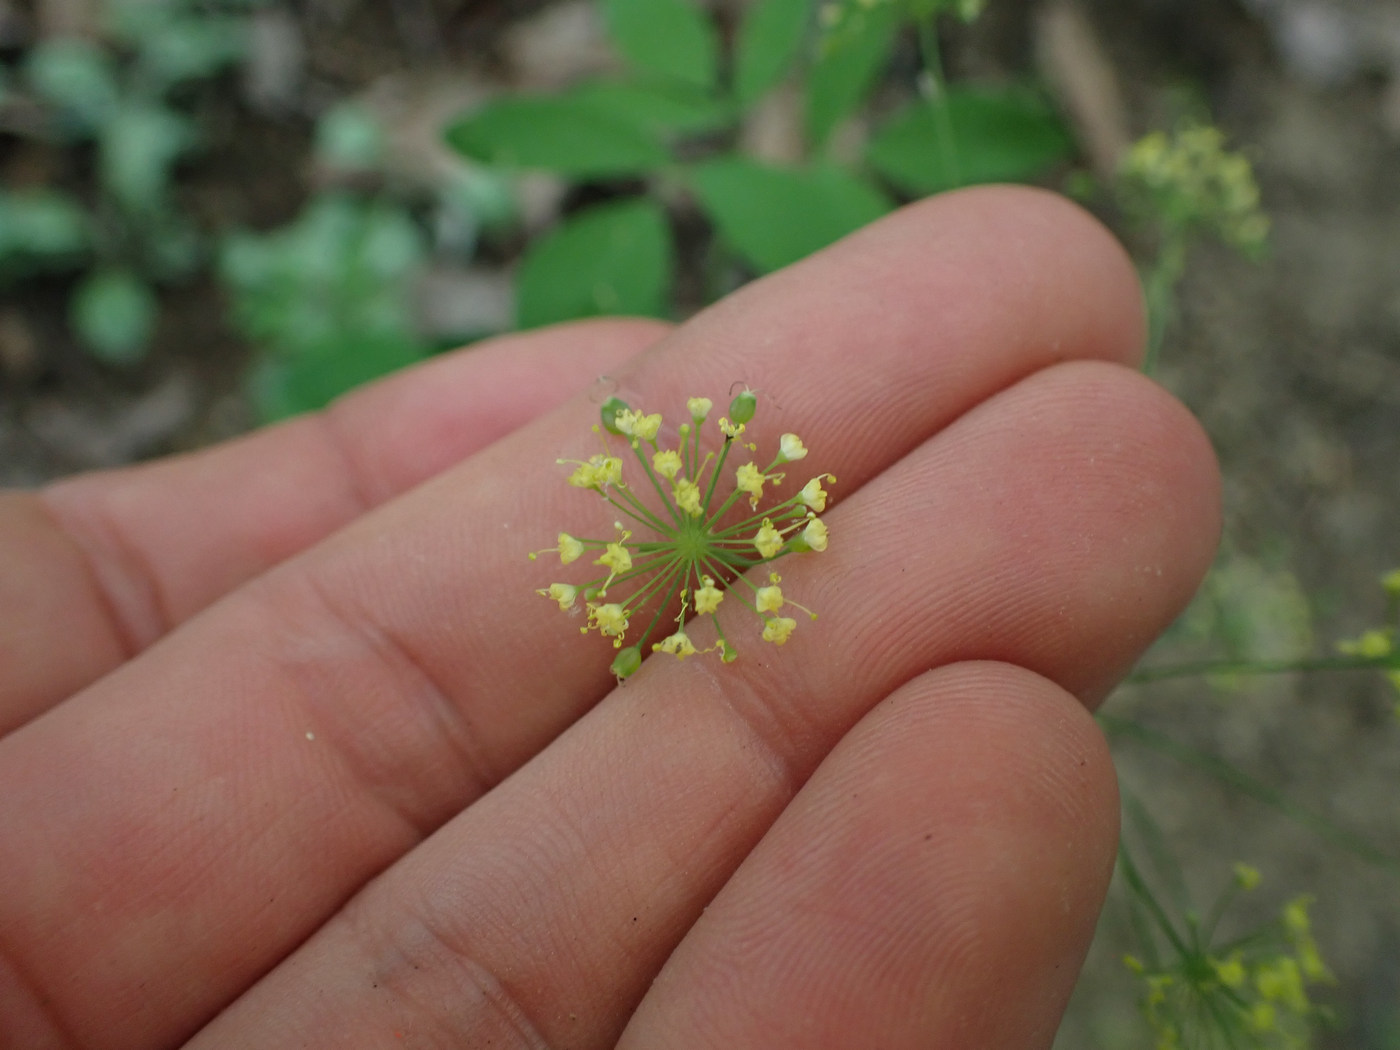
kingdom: Plantae
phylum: Tracheophyta
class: Magnoliopsida
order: Apiales
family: Apiaceae
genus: Taenidia
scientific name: Taenidia integerrima
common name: Golden alexander
